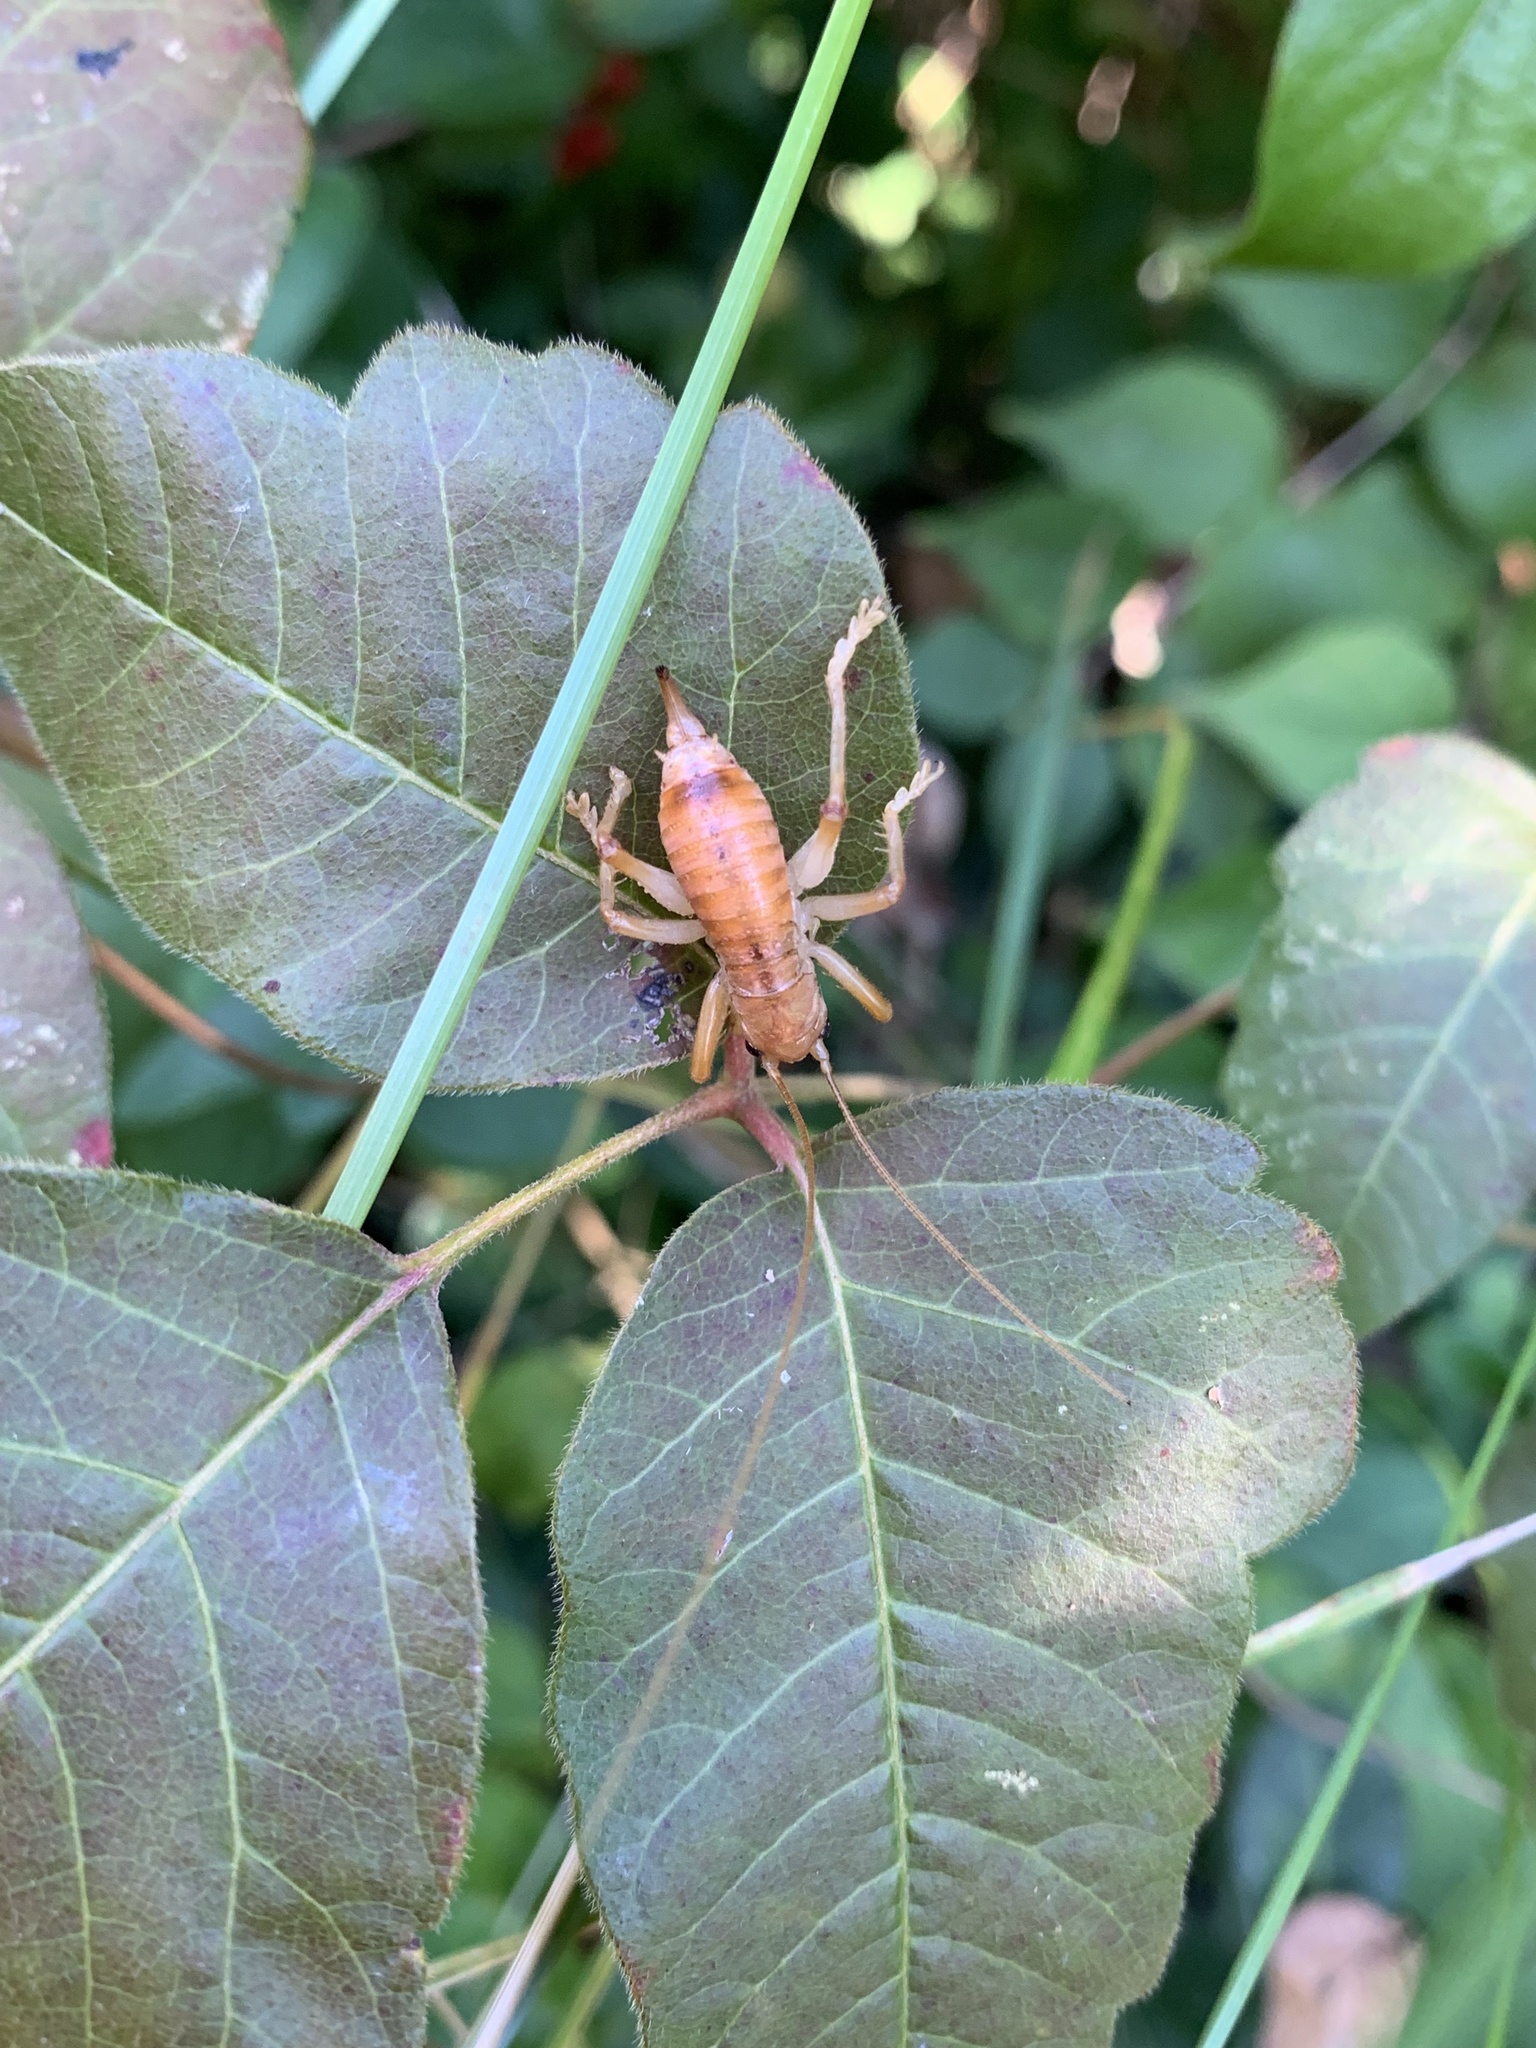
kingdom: Animalia
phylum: Arthropoda
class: Insecta
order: Orthoptera
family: Gryllacrididae
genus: Camptonotus
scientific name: Camptonotus carolinensis
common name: Carolina leaf-roller
